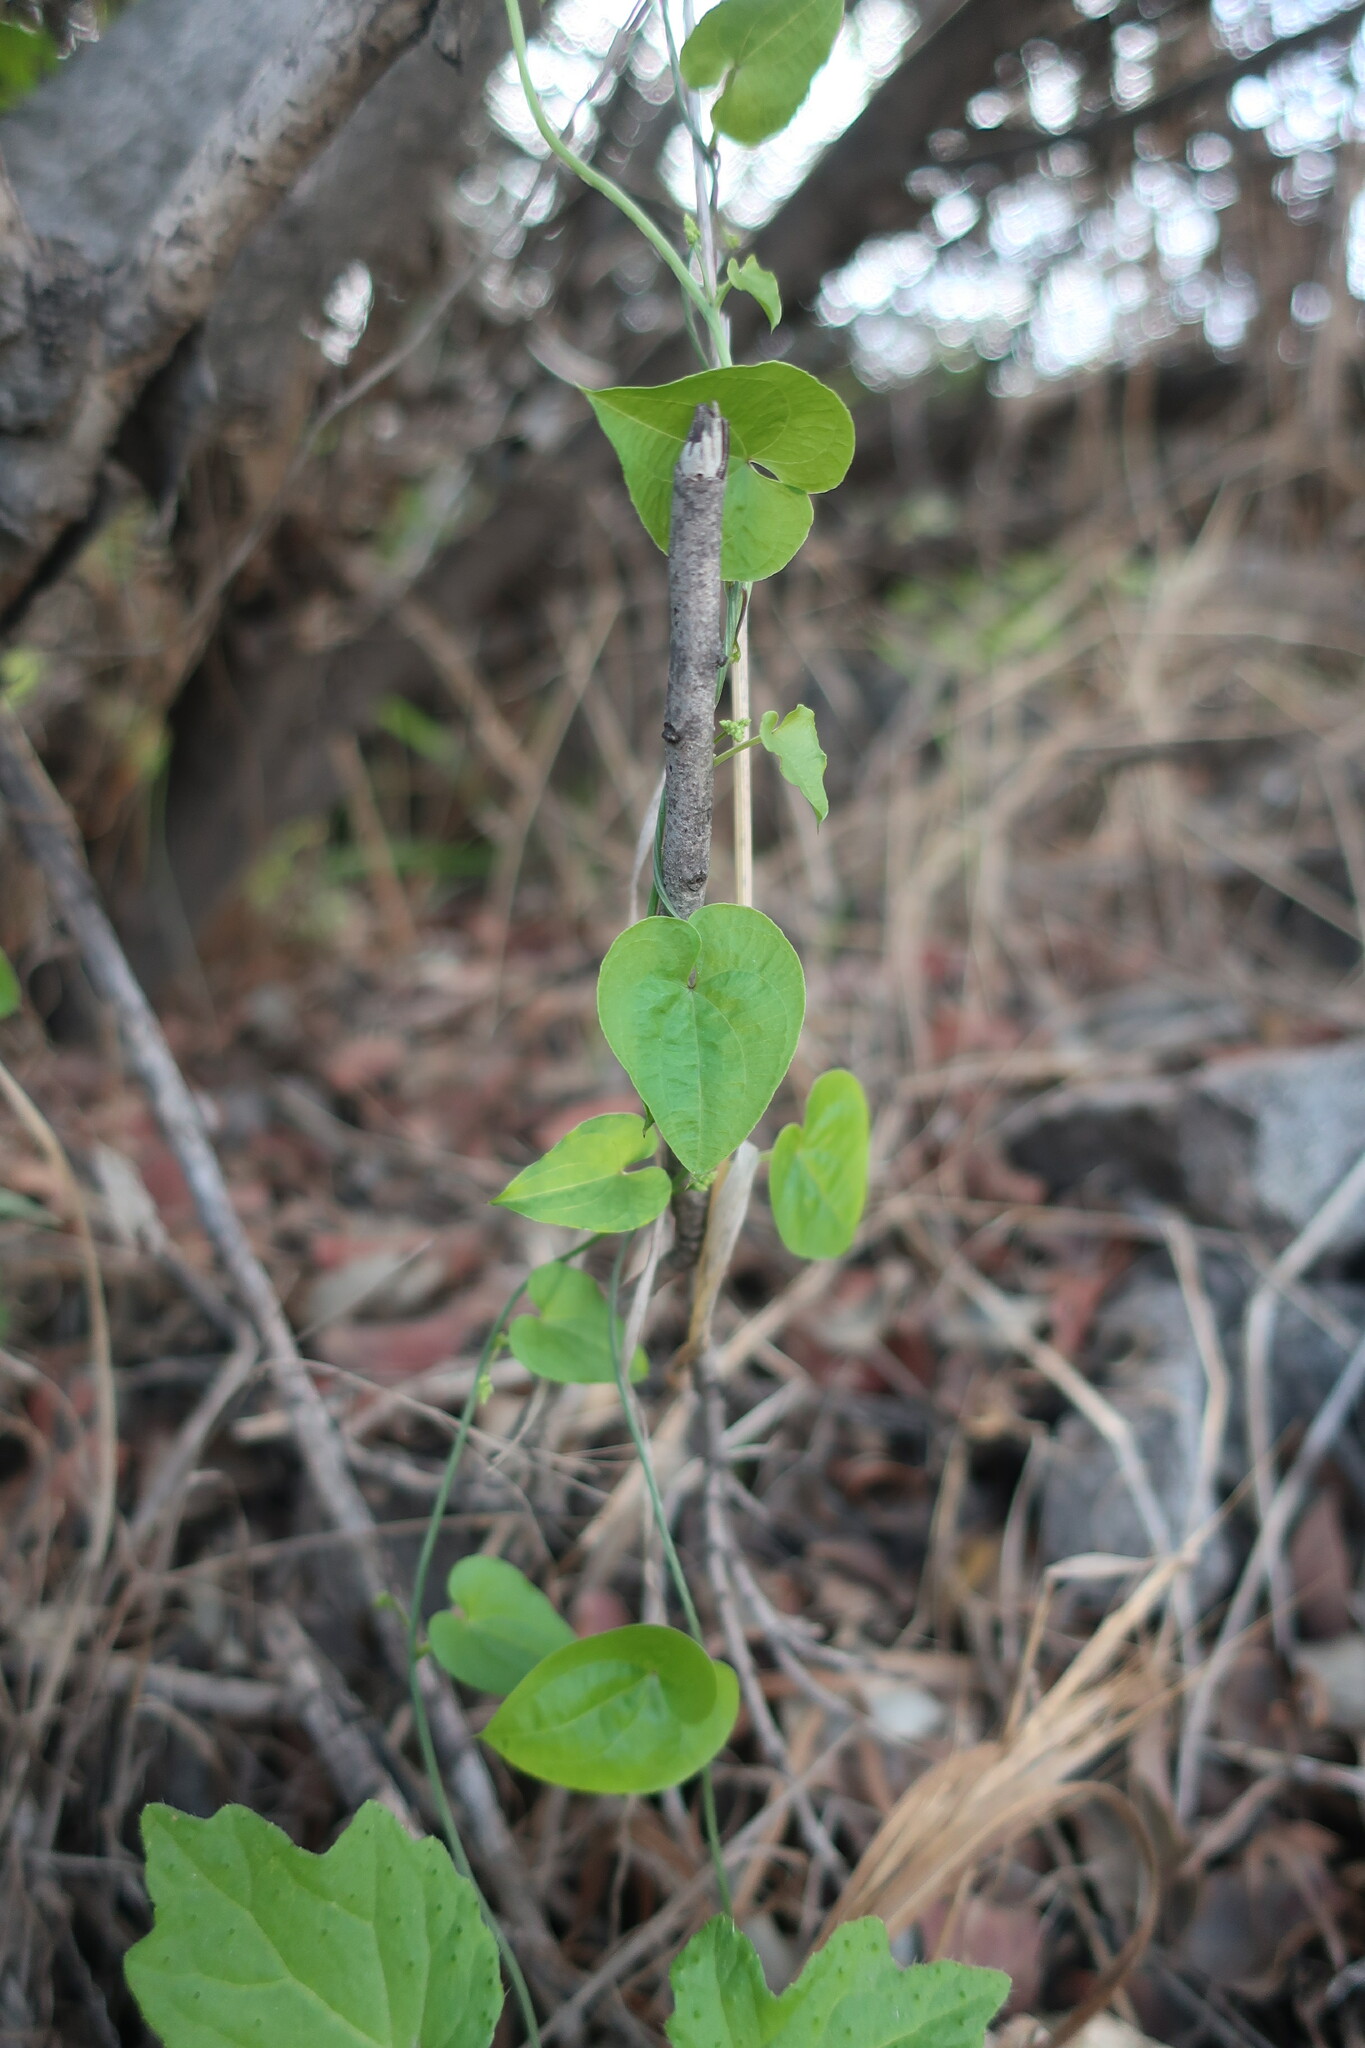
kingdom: Plantae
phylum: Tracheophyta
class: Liliopsida
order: Dioscoreales
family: Dioscoreaceae
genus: Dioscorea
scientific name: Dioscorea variifolia
